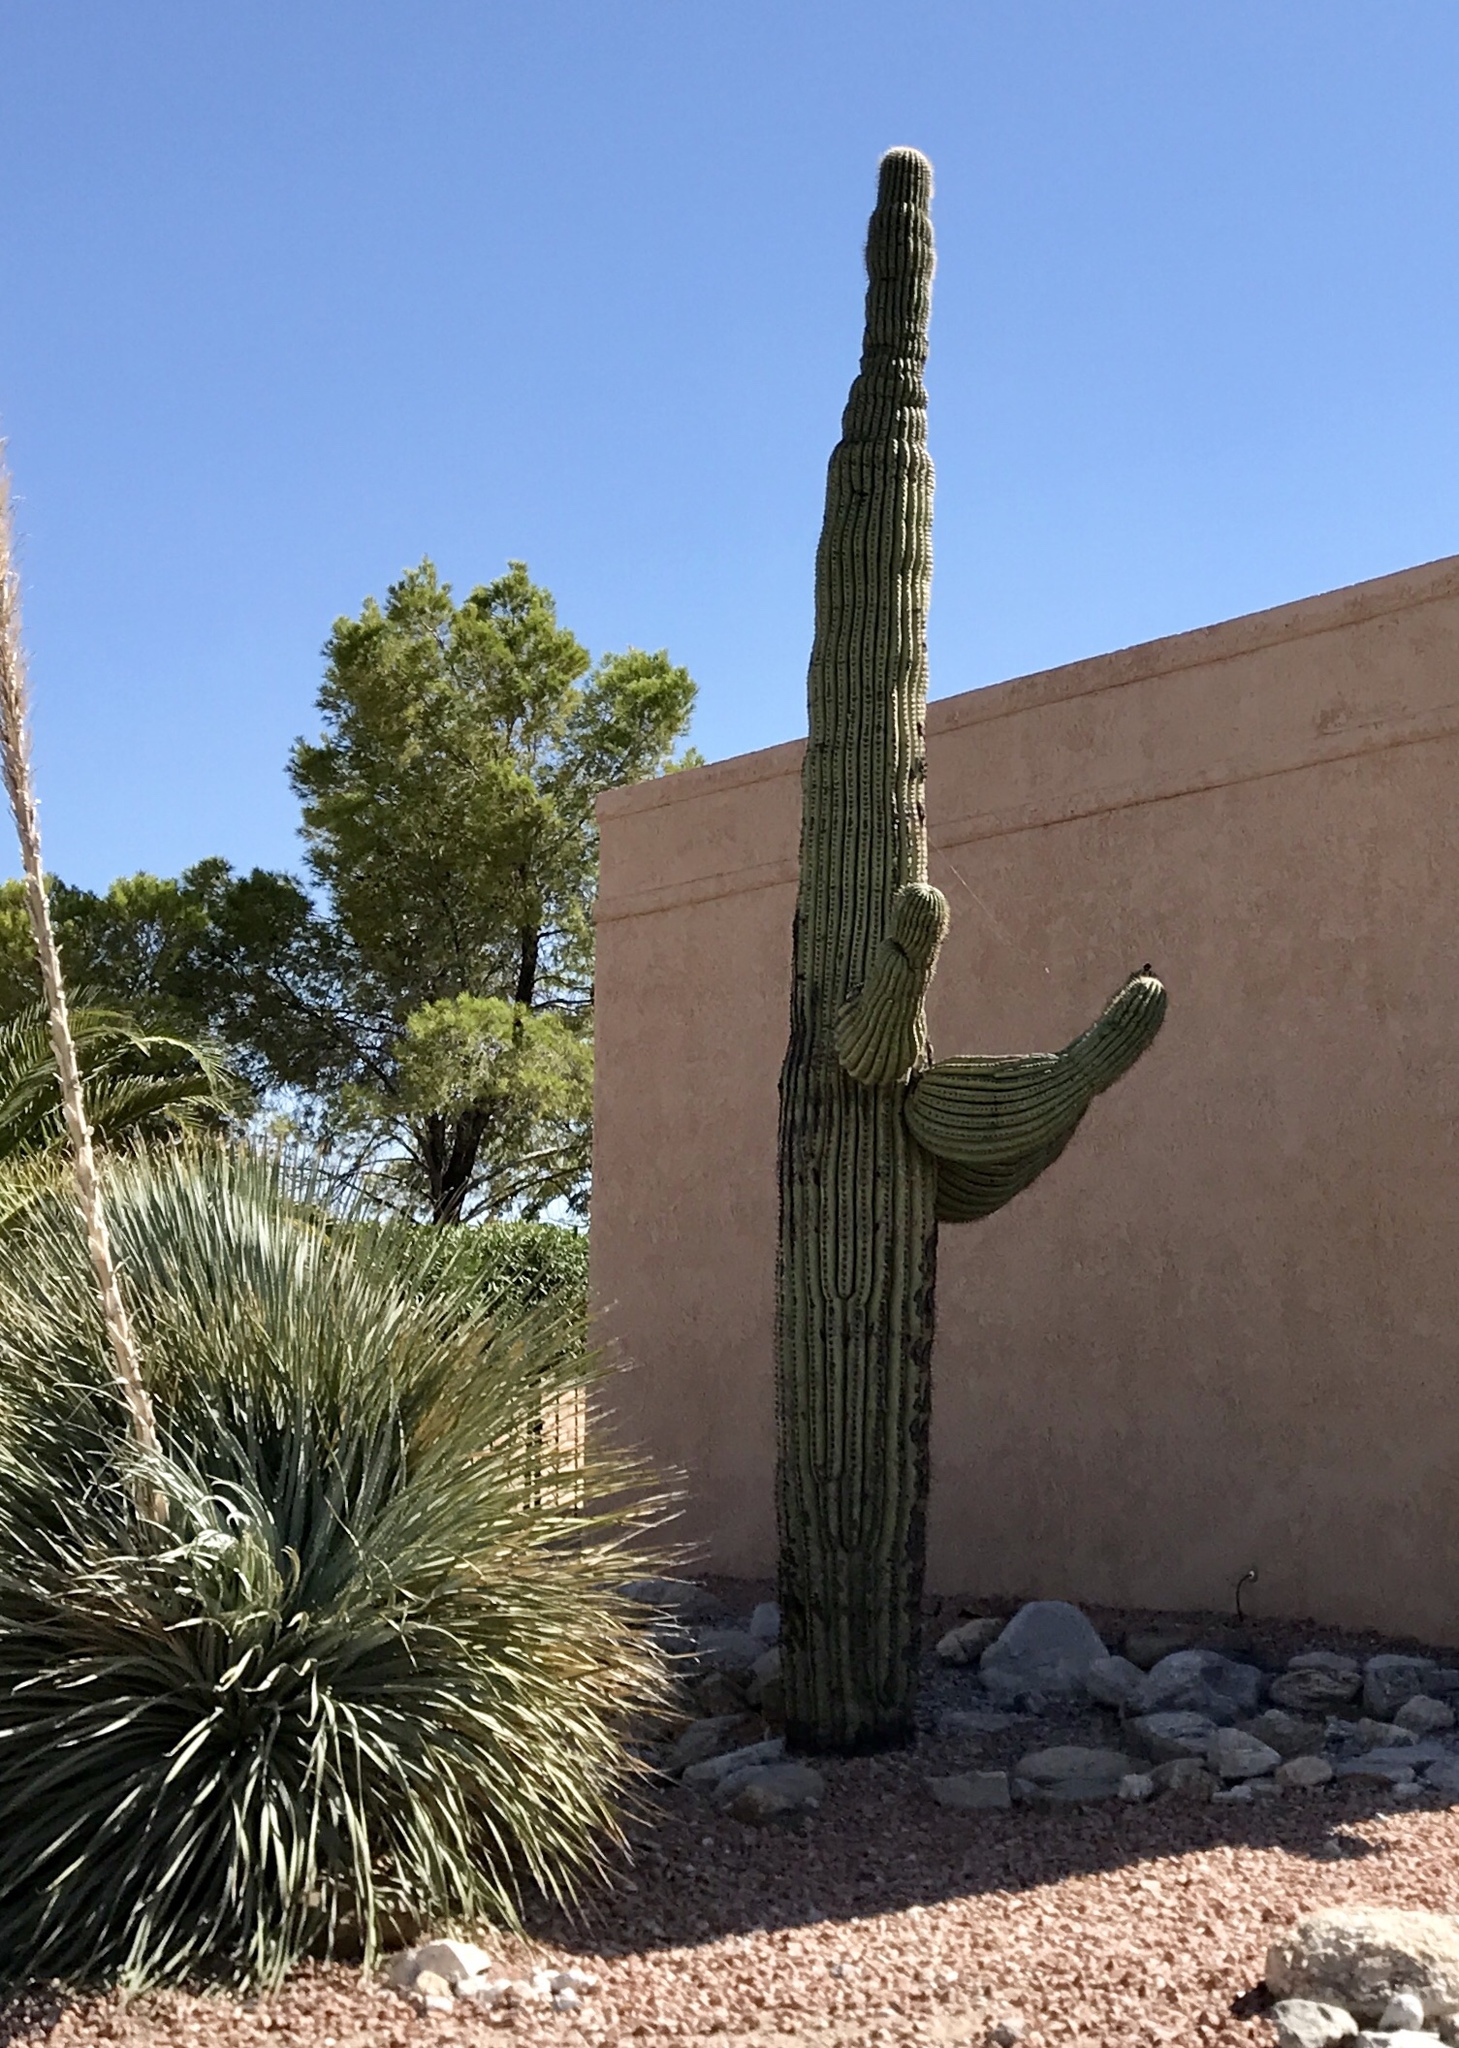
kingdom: Plantae
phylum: Tracheophyta
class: Magnoliopsida
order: Caryophyllales
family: Cactaceae
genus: Carnegiea
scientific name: Carnegiea gigantea
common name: Saguaro
